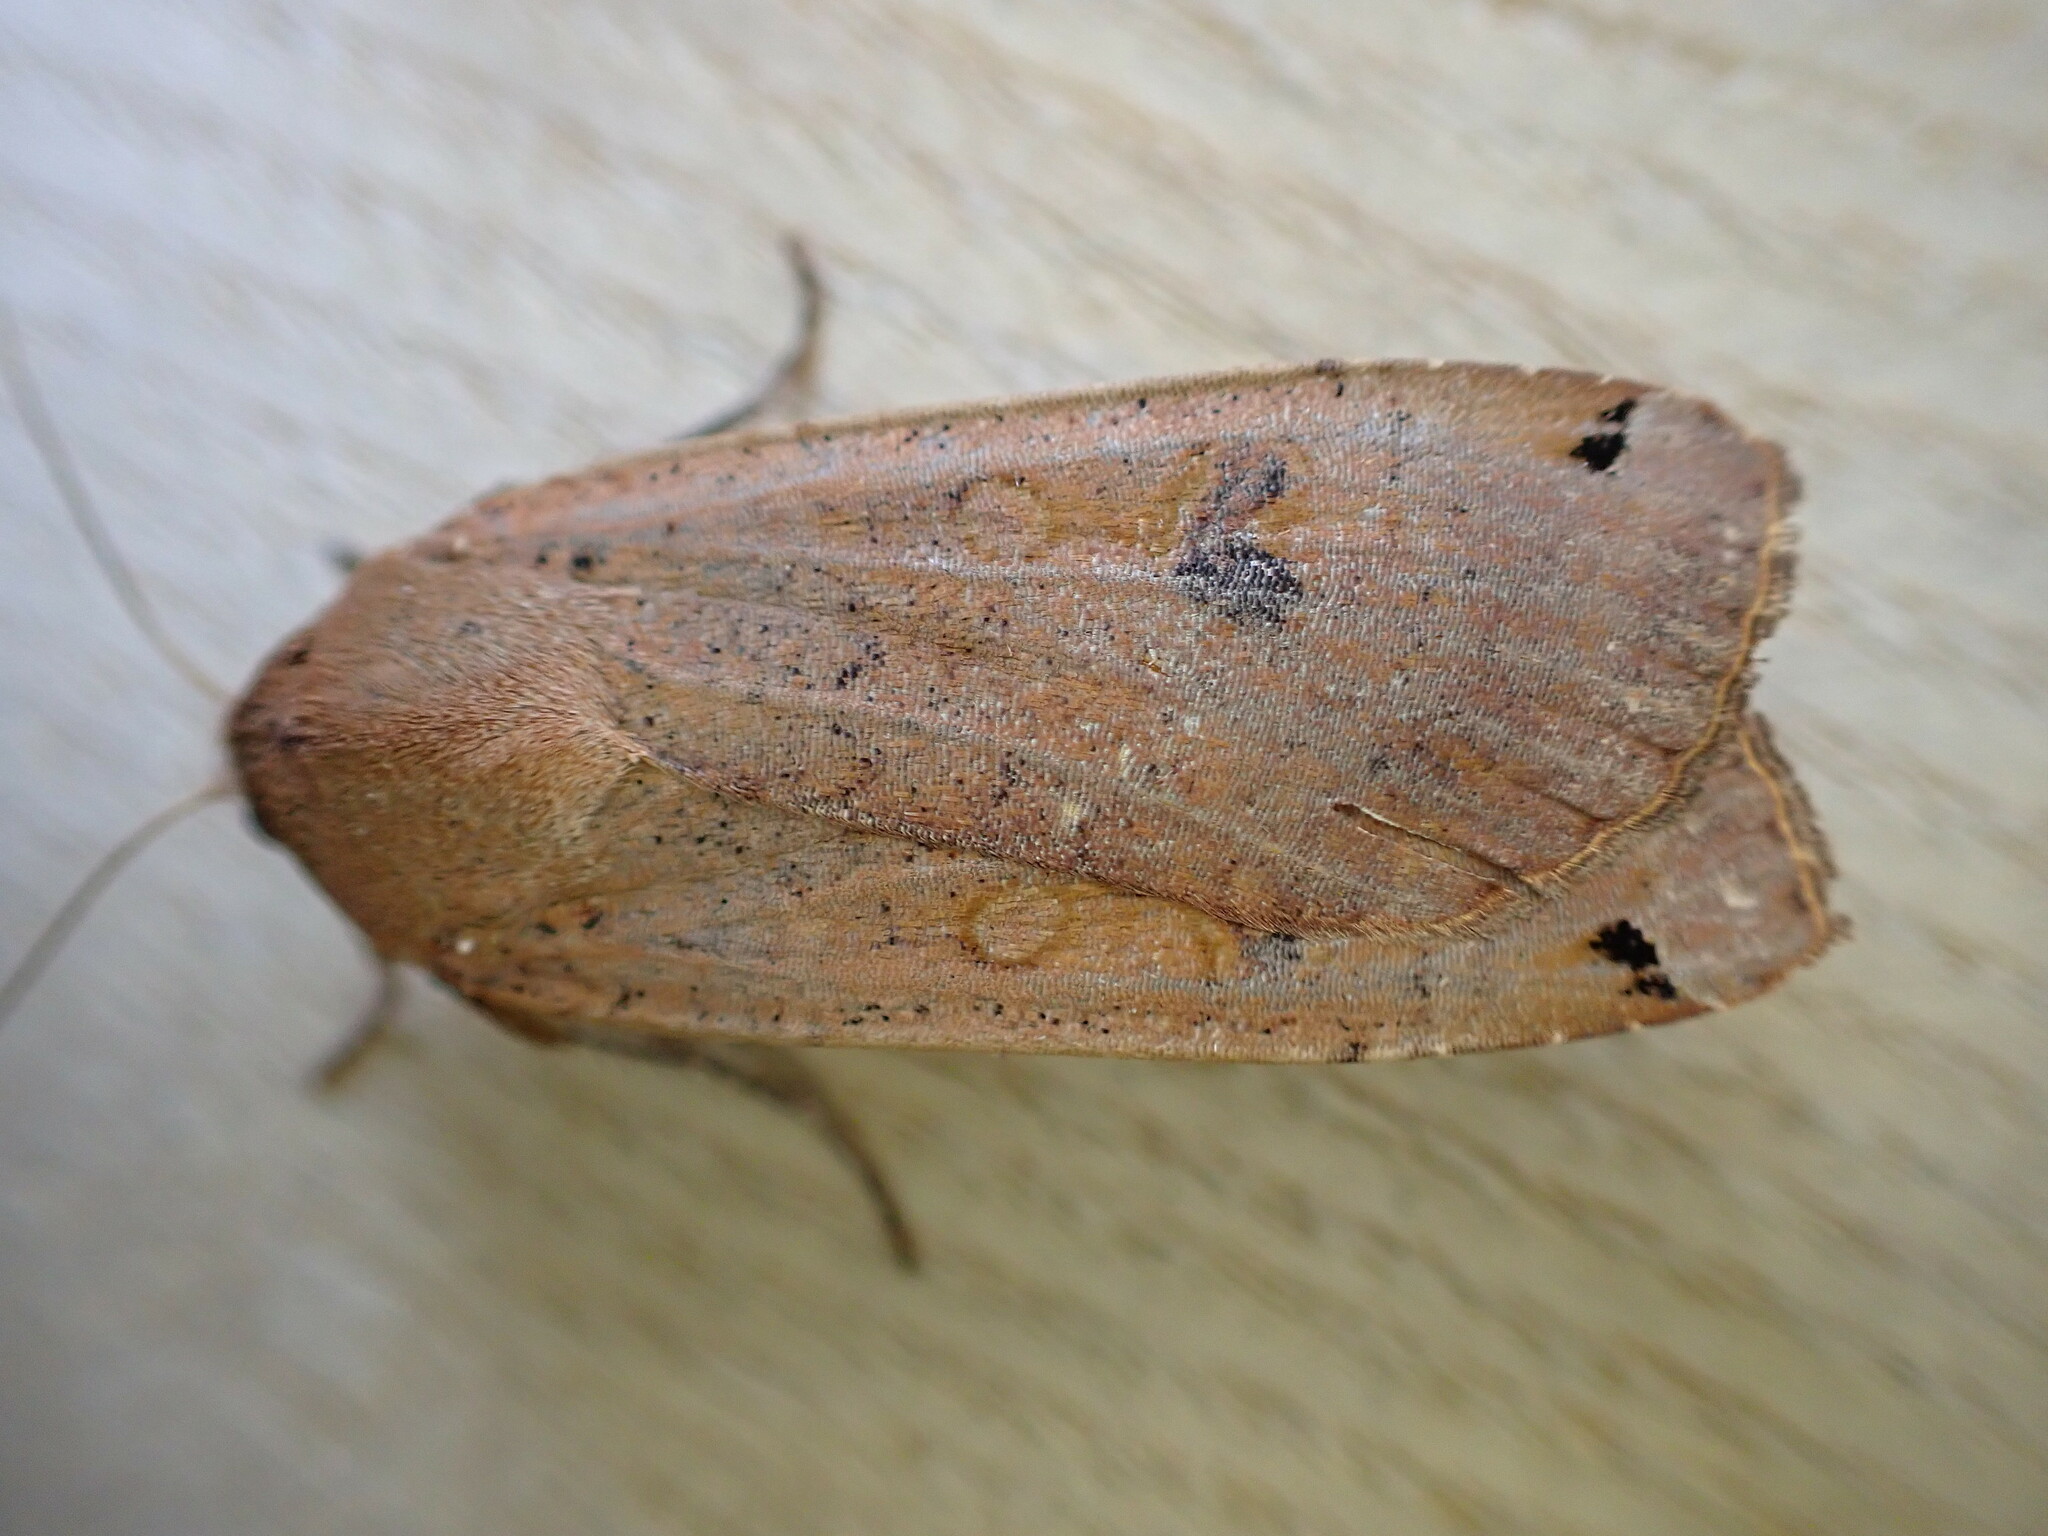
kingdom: Animalia
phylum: Arthropoda
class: Insecta
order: Lepidoptera
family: Noctuidae
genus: Noctua
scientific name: Noctua pronuba
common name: Large yellow underwing
